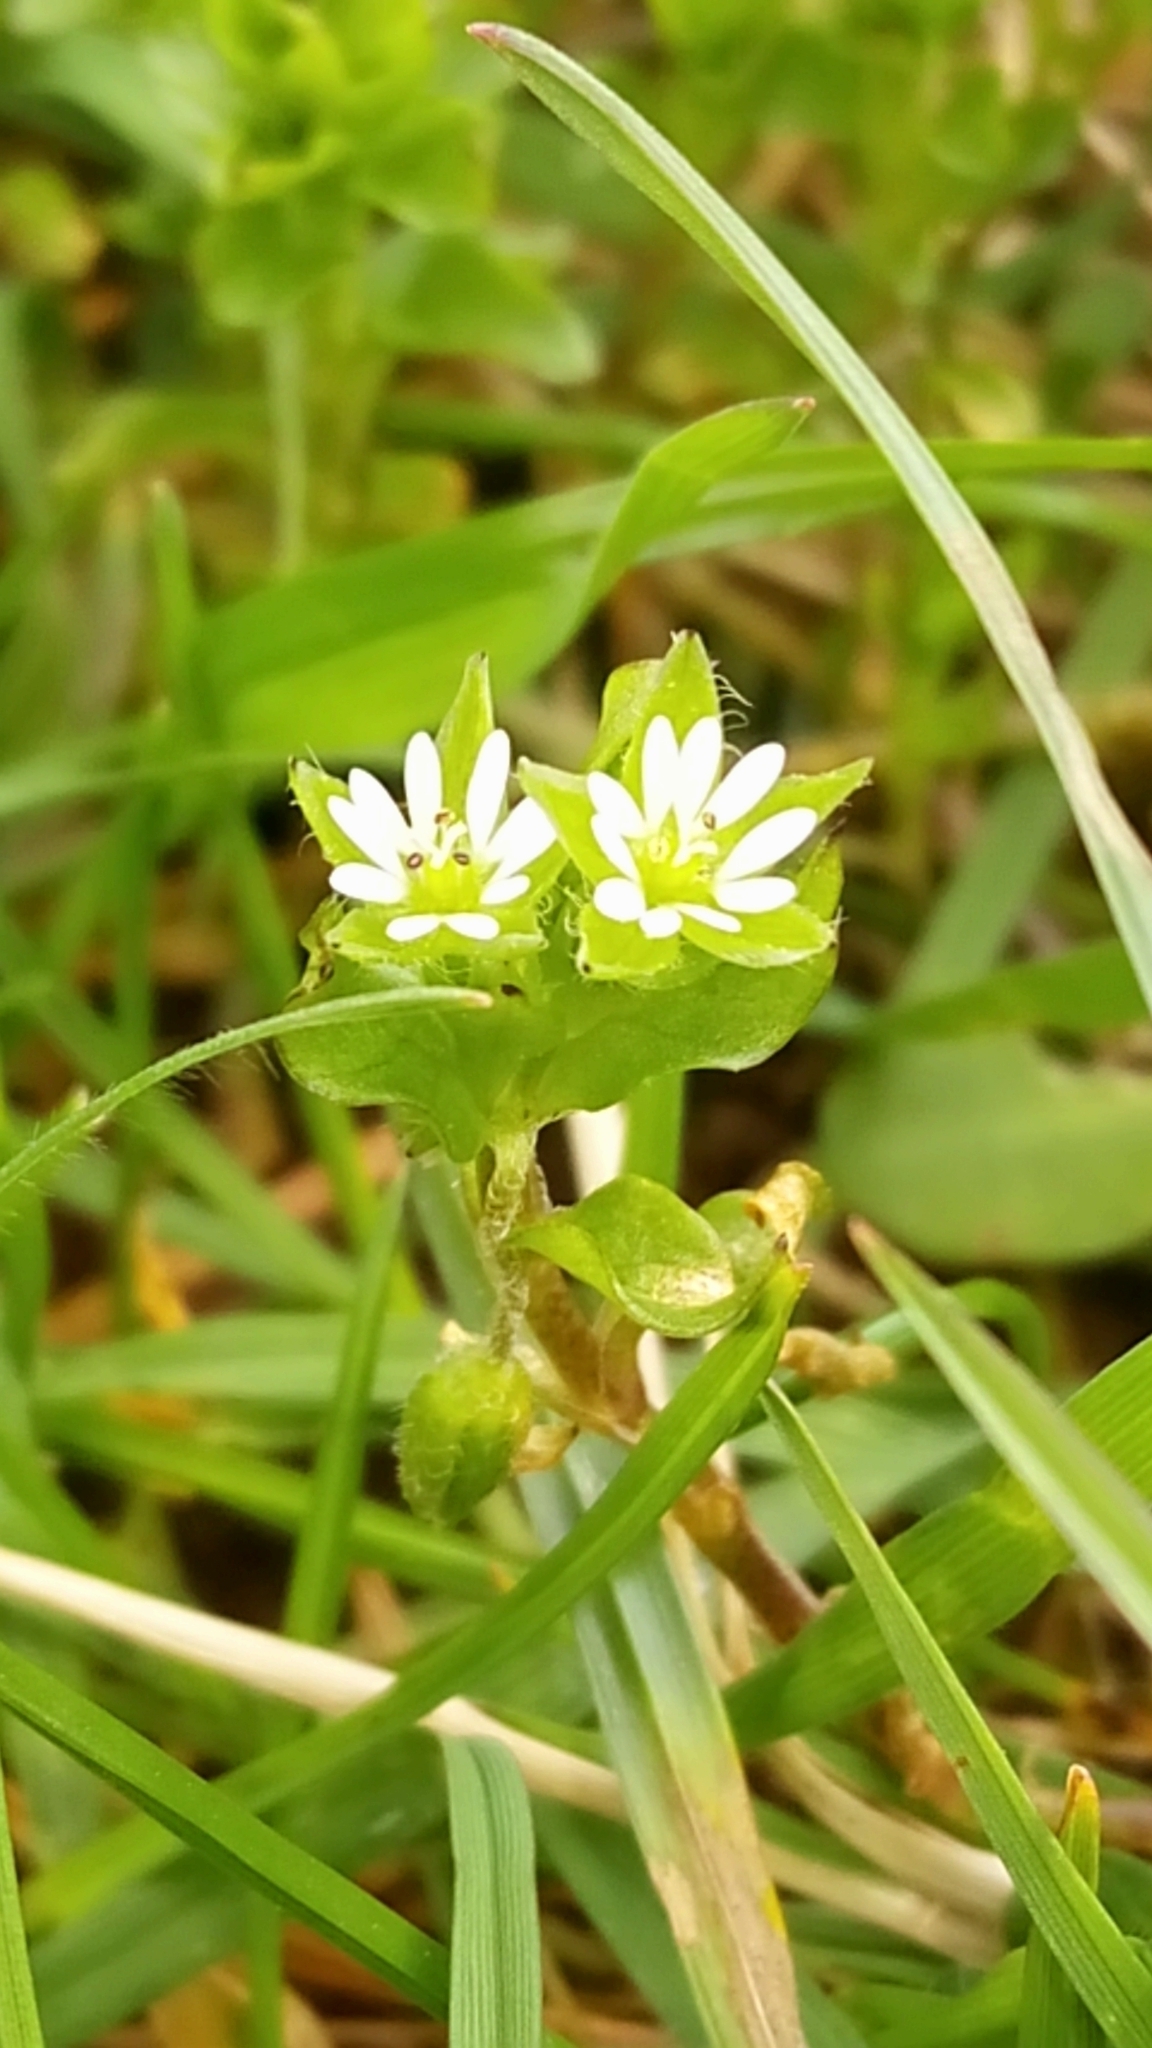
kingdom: Plantae
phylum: Tracheophyta
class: Magnoliopsida
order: Caryophyllales
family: Caryophyllaceae
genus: Stellaria
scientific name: Stellaria media
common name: Common chickweed
